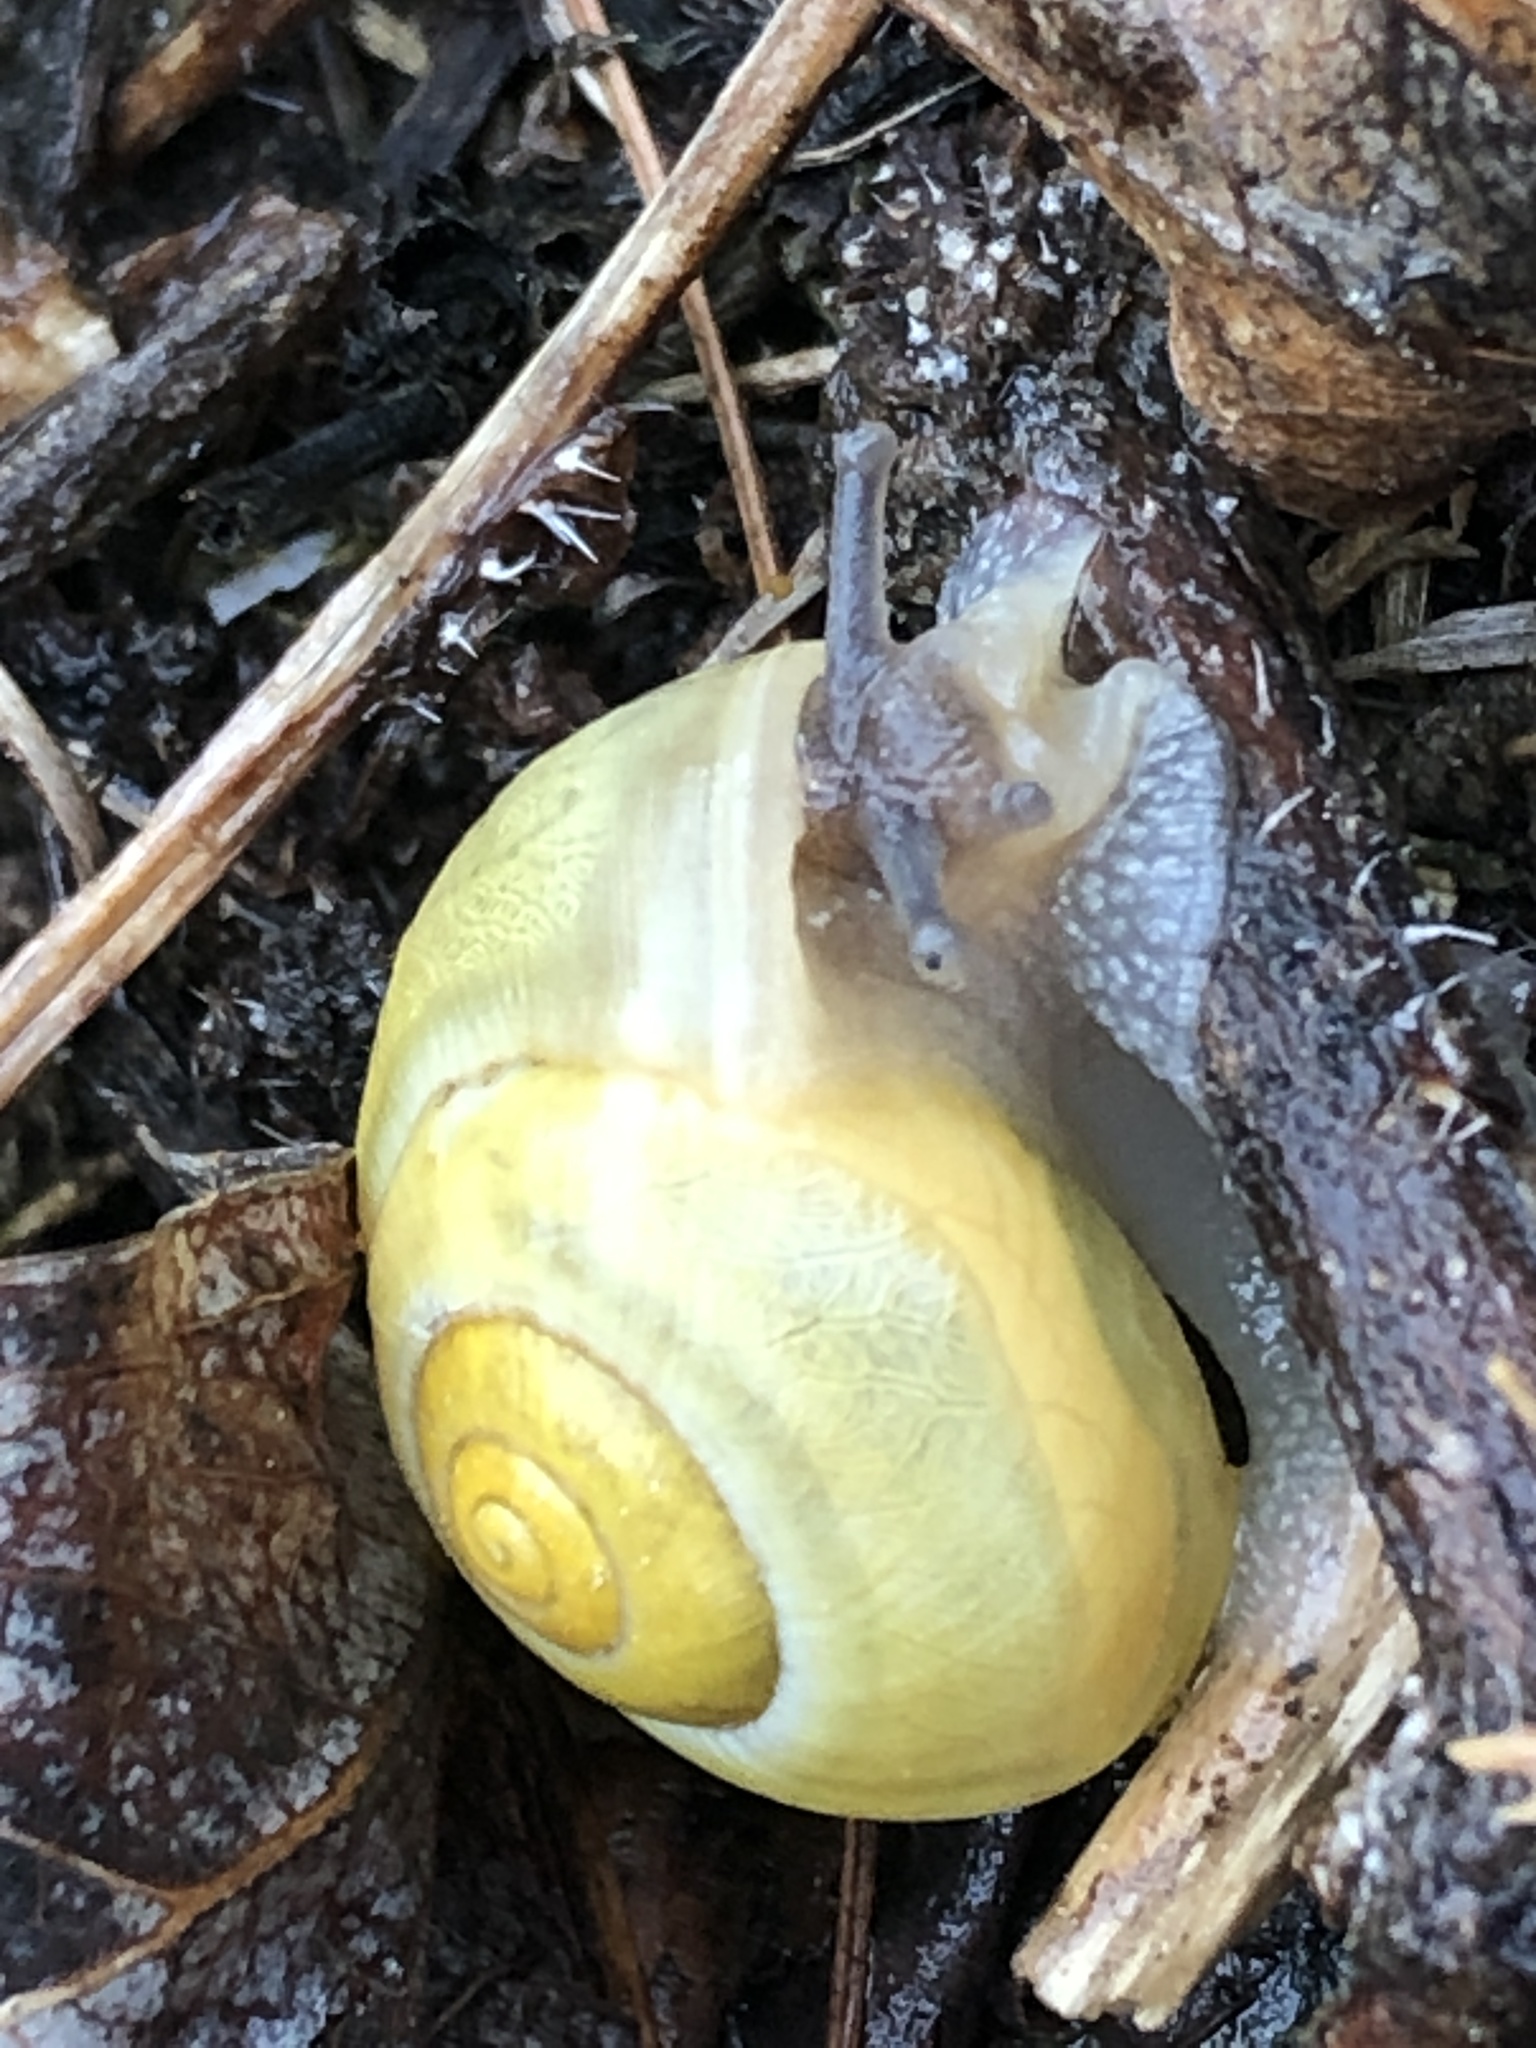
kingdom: Animalia
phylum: Mollusca
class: Gastropoda
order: Stylommatophora
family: Helicidae
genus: Cepaea
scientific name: Cepaea
